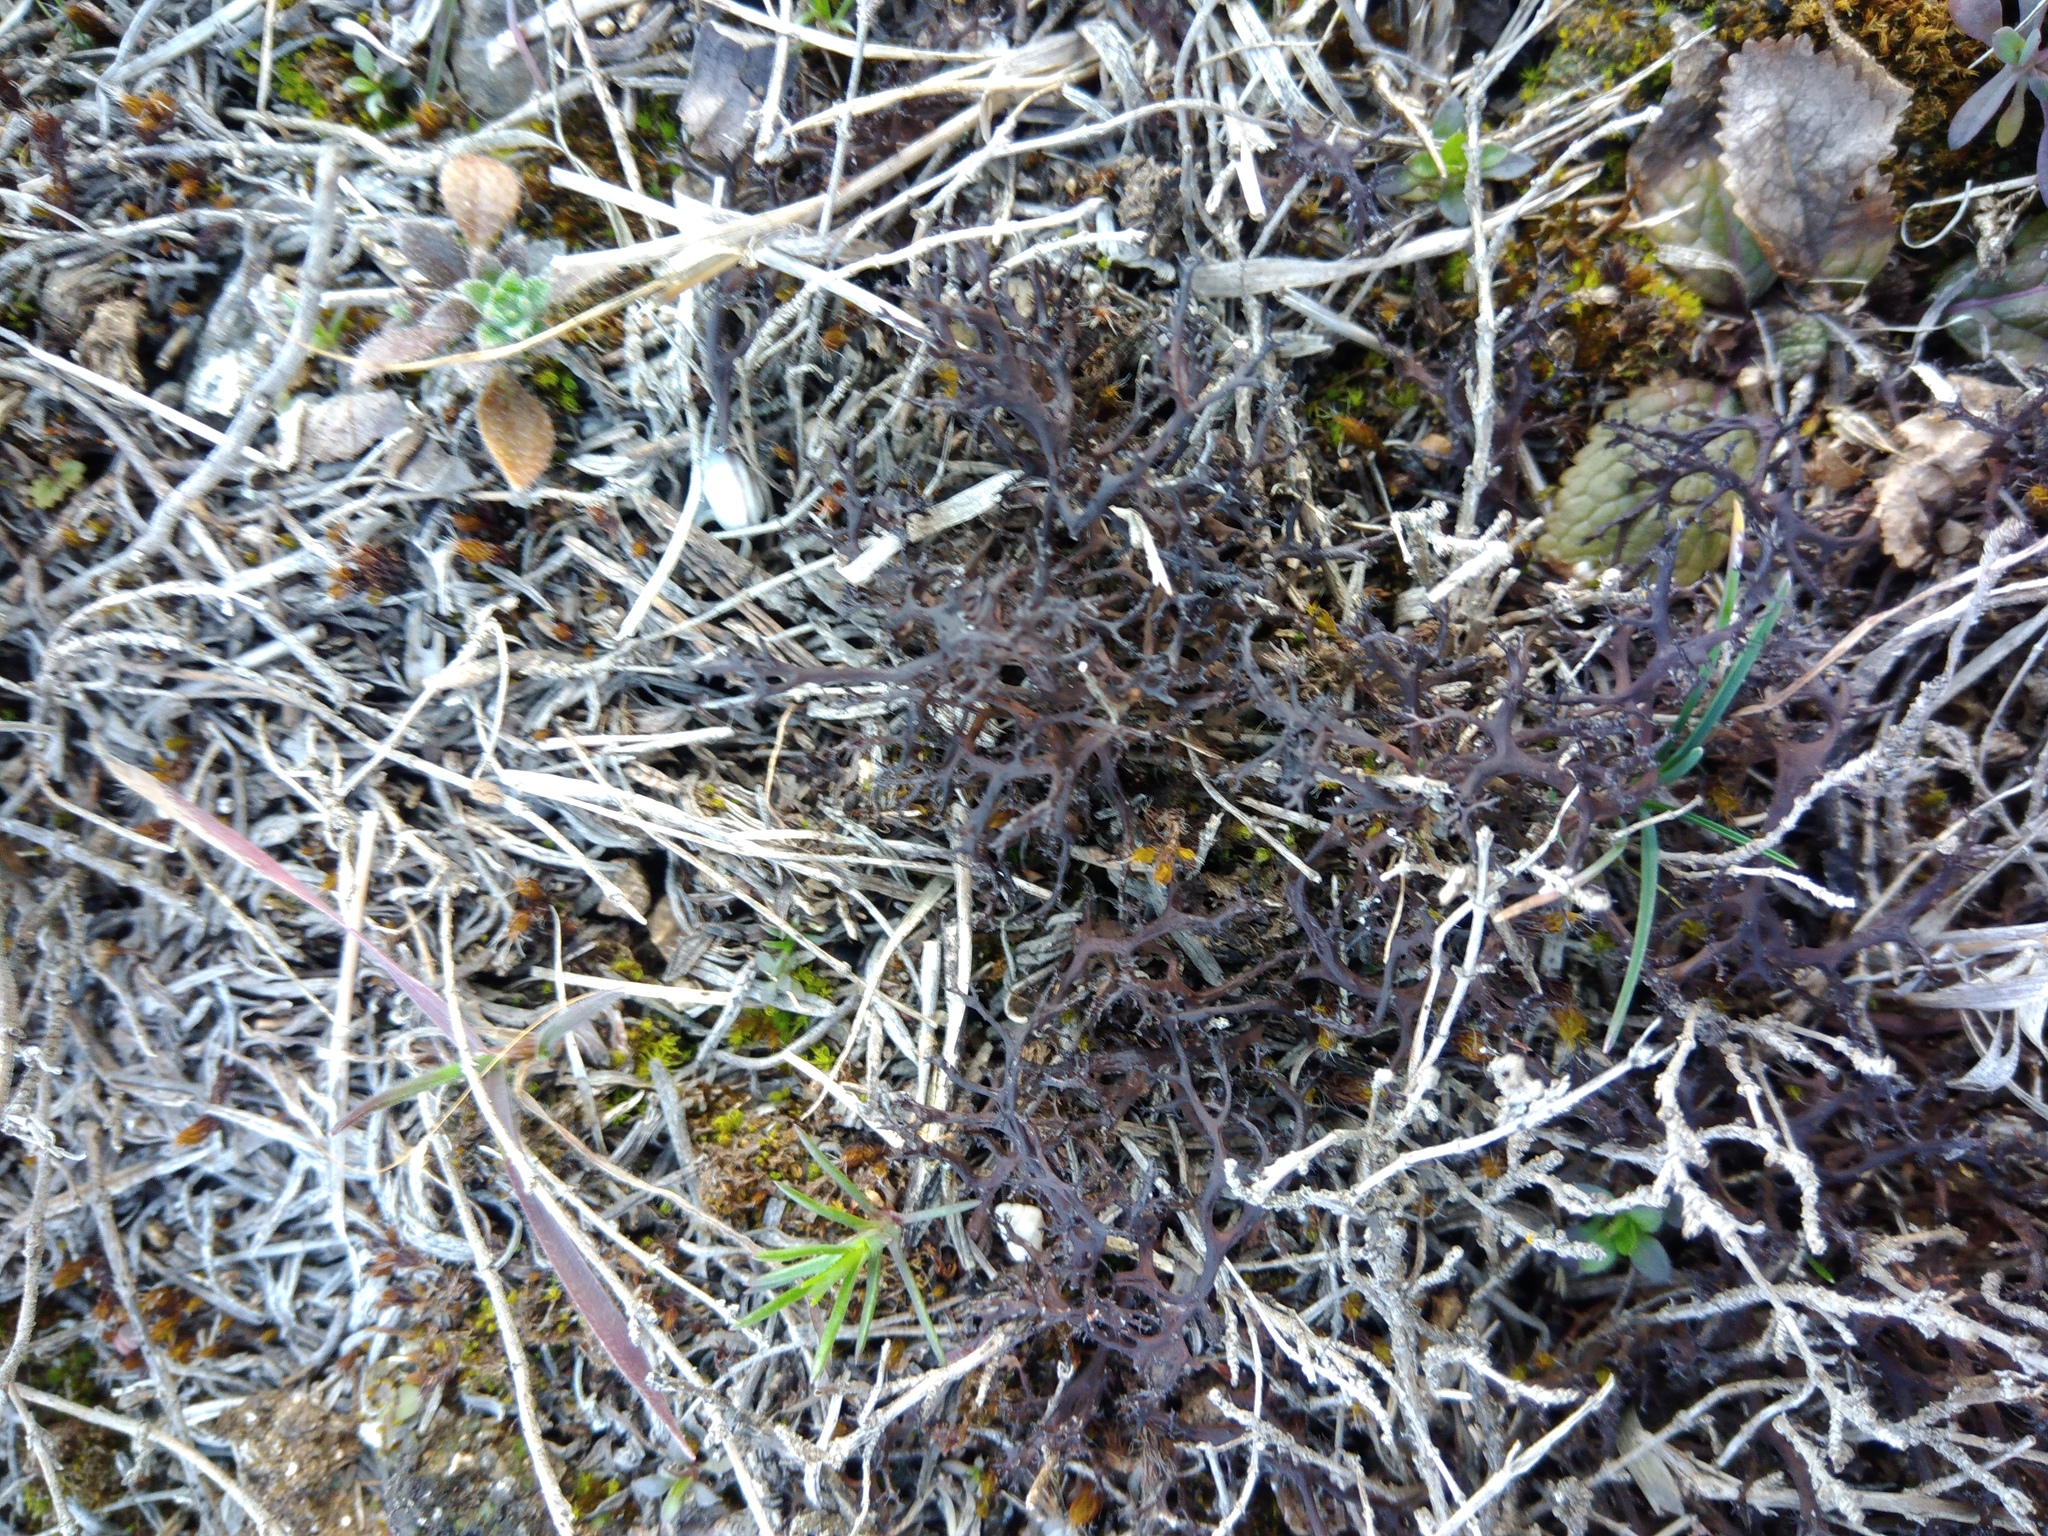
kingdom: Fungi
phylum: Ascomycota
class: Lecanoromycetes
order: Lecanorales
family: Parmeliaceae
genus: Cetraria
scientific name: Cetraria aculeata
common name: Spiny heath lichen
